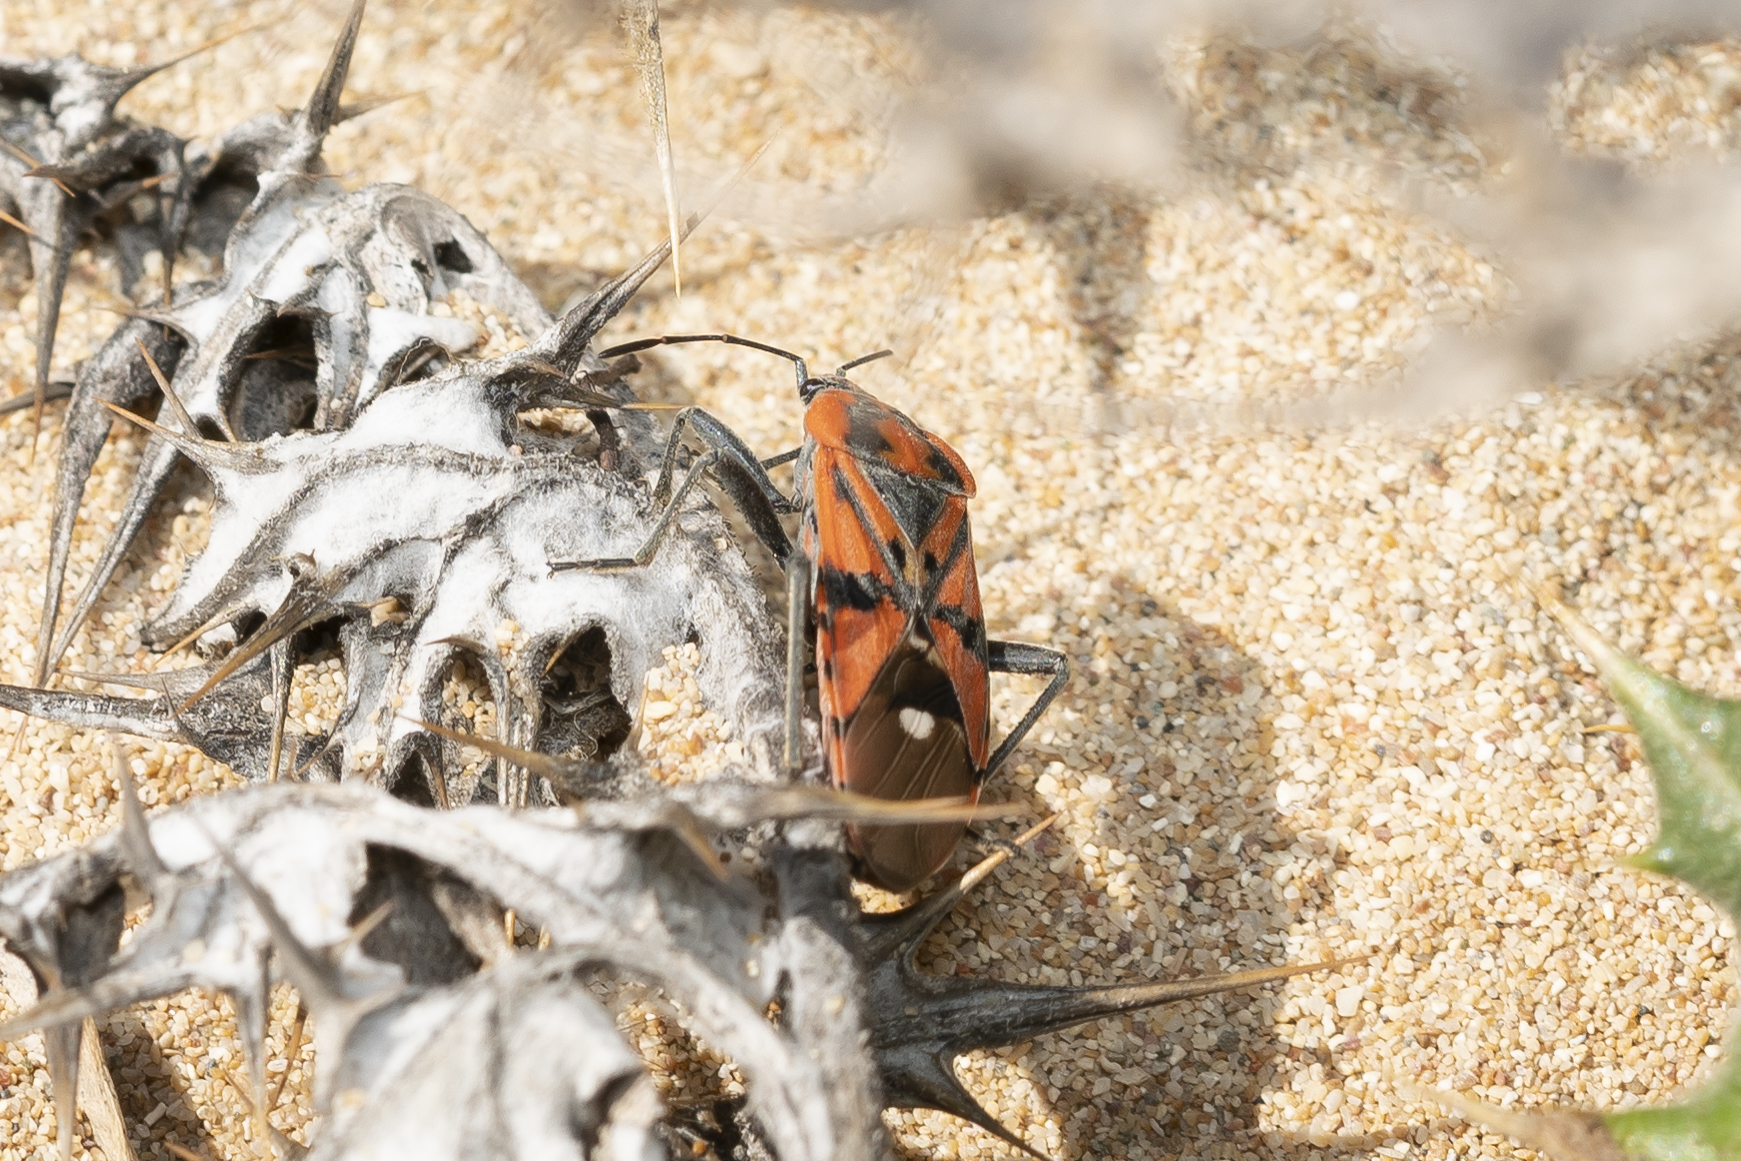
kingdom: Animalia
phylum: Arthropoda
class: Insecta
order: Hemiptera
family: Lygaeidae
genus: Spilostethus
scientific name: Spilostethus pandurus
